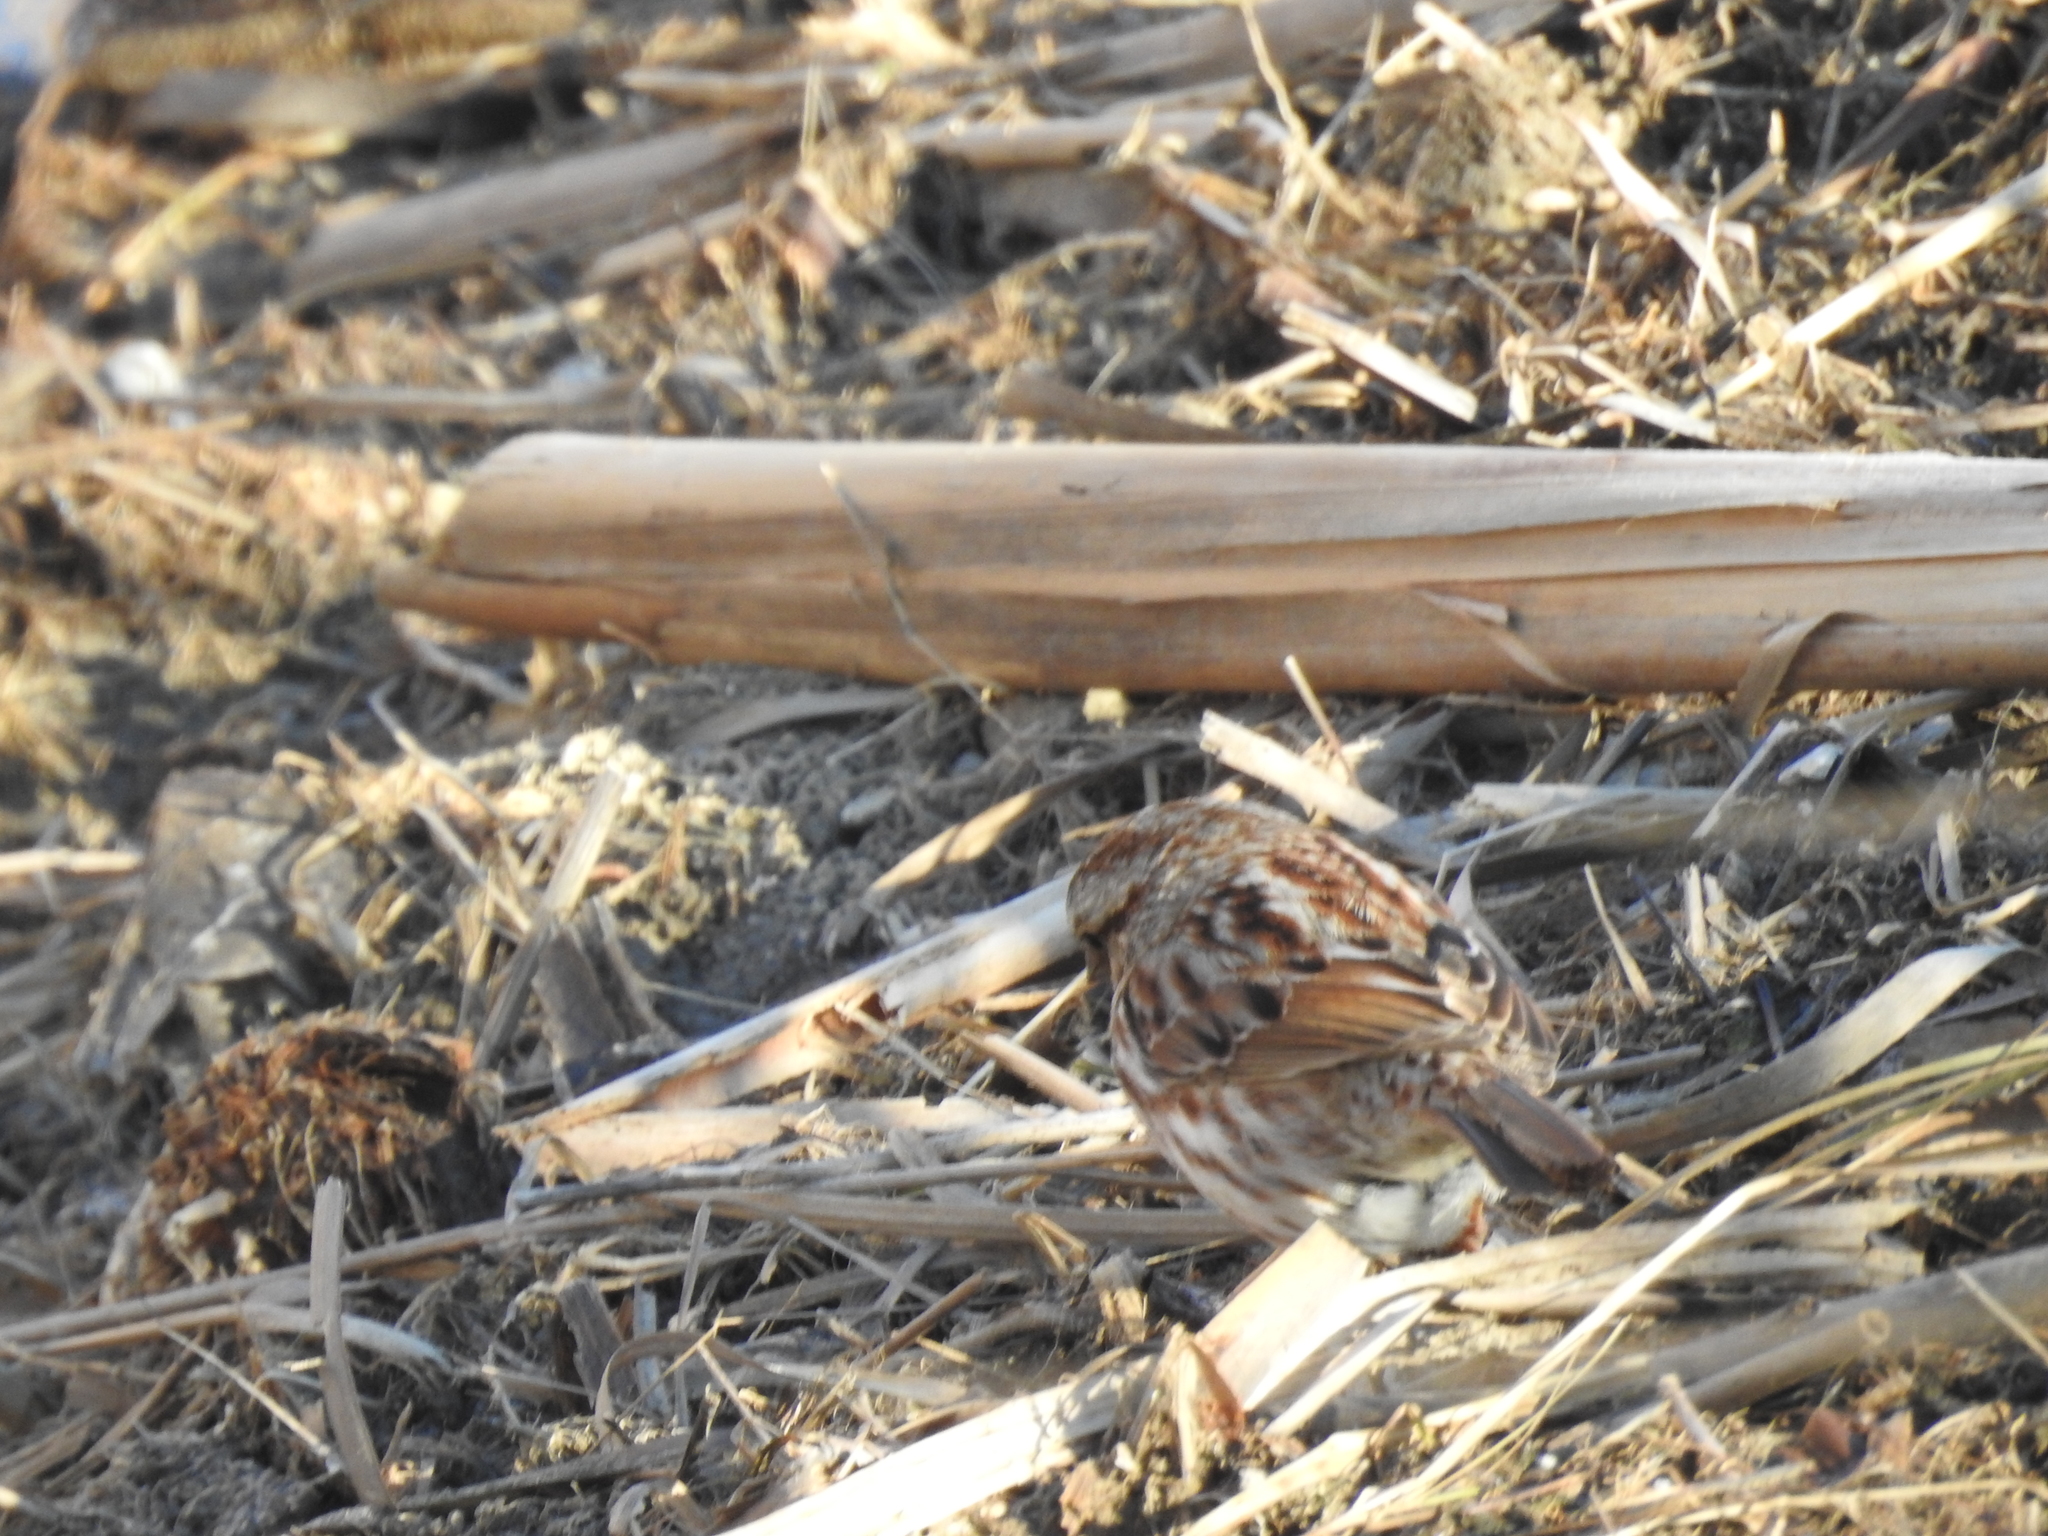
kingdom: Animalia
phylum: Chordata
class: Aves
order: Passeriformes
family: Passerellidae
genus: Melospiza
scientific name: Melospiza melodia
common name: Song sparrow
